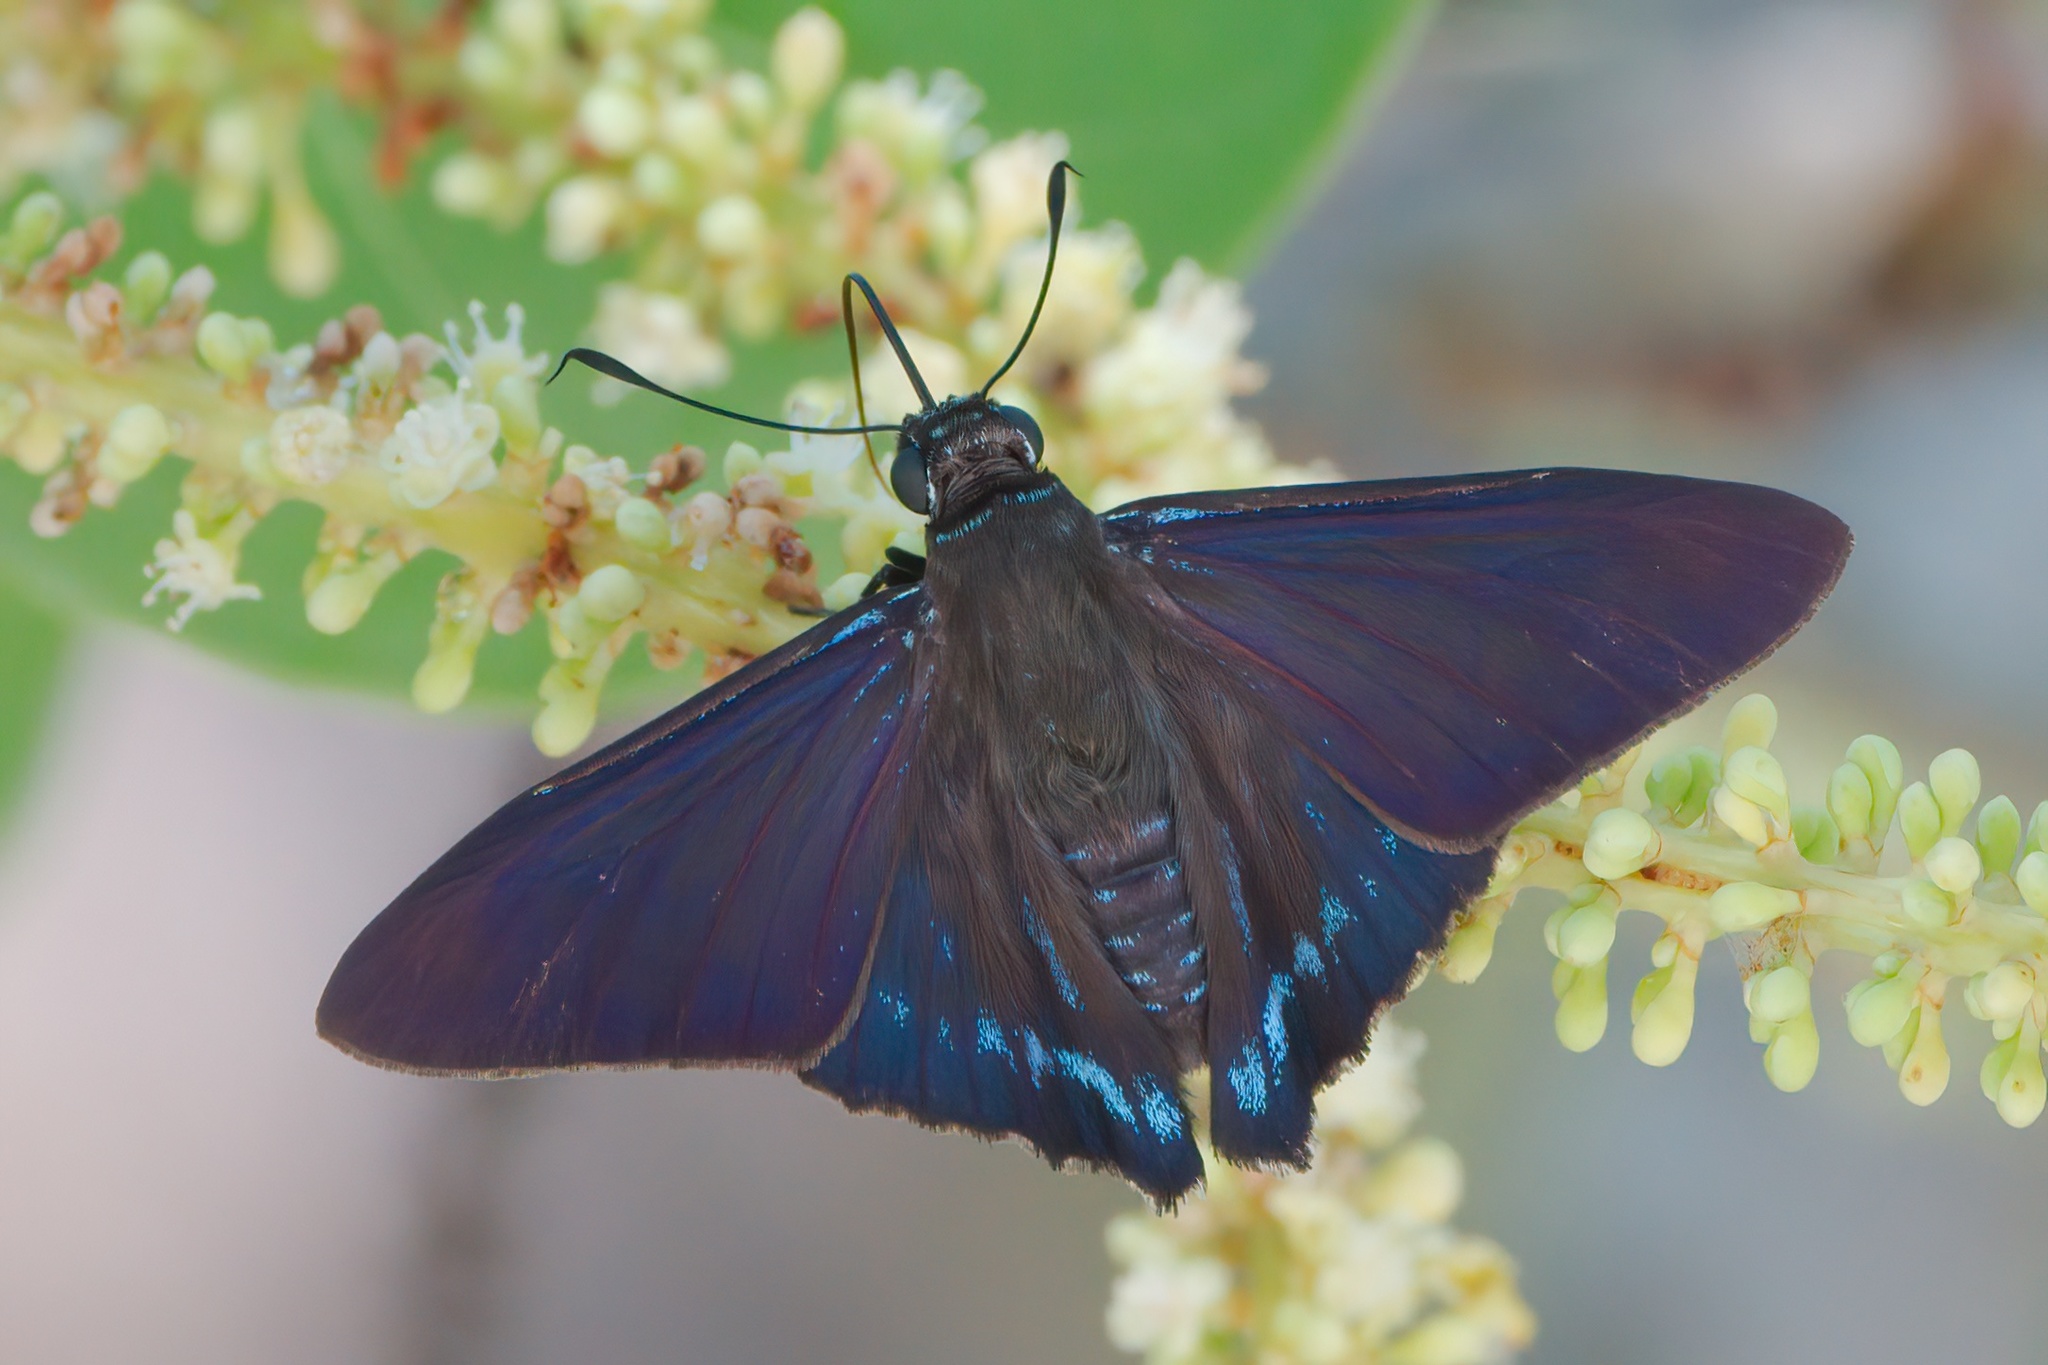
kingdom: Animalia
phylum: Arthropoda
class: Insecta
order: Lepidoptera
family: Hesperiidae
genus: Phocides
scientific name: Phocides pigmalion
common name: Mangrove skipper
